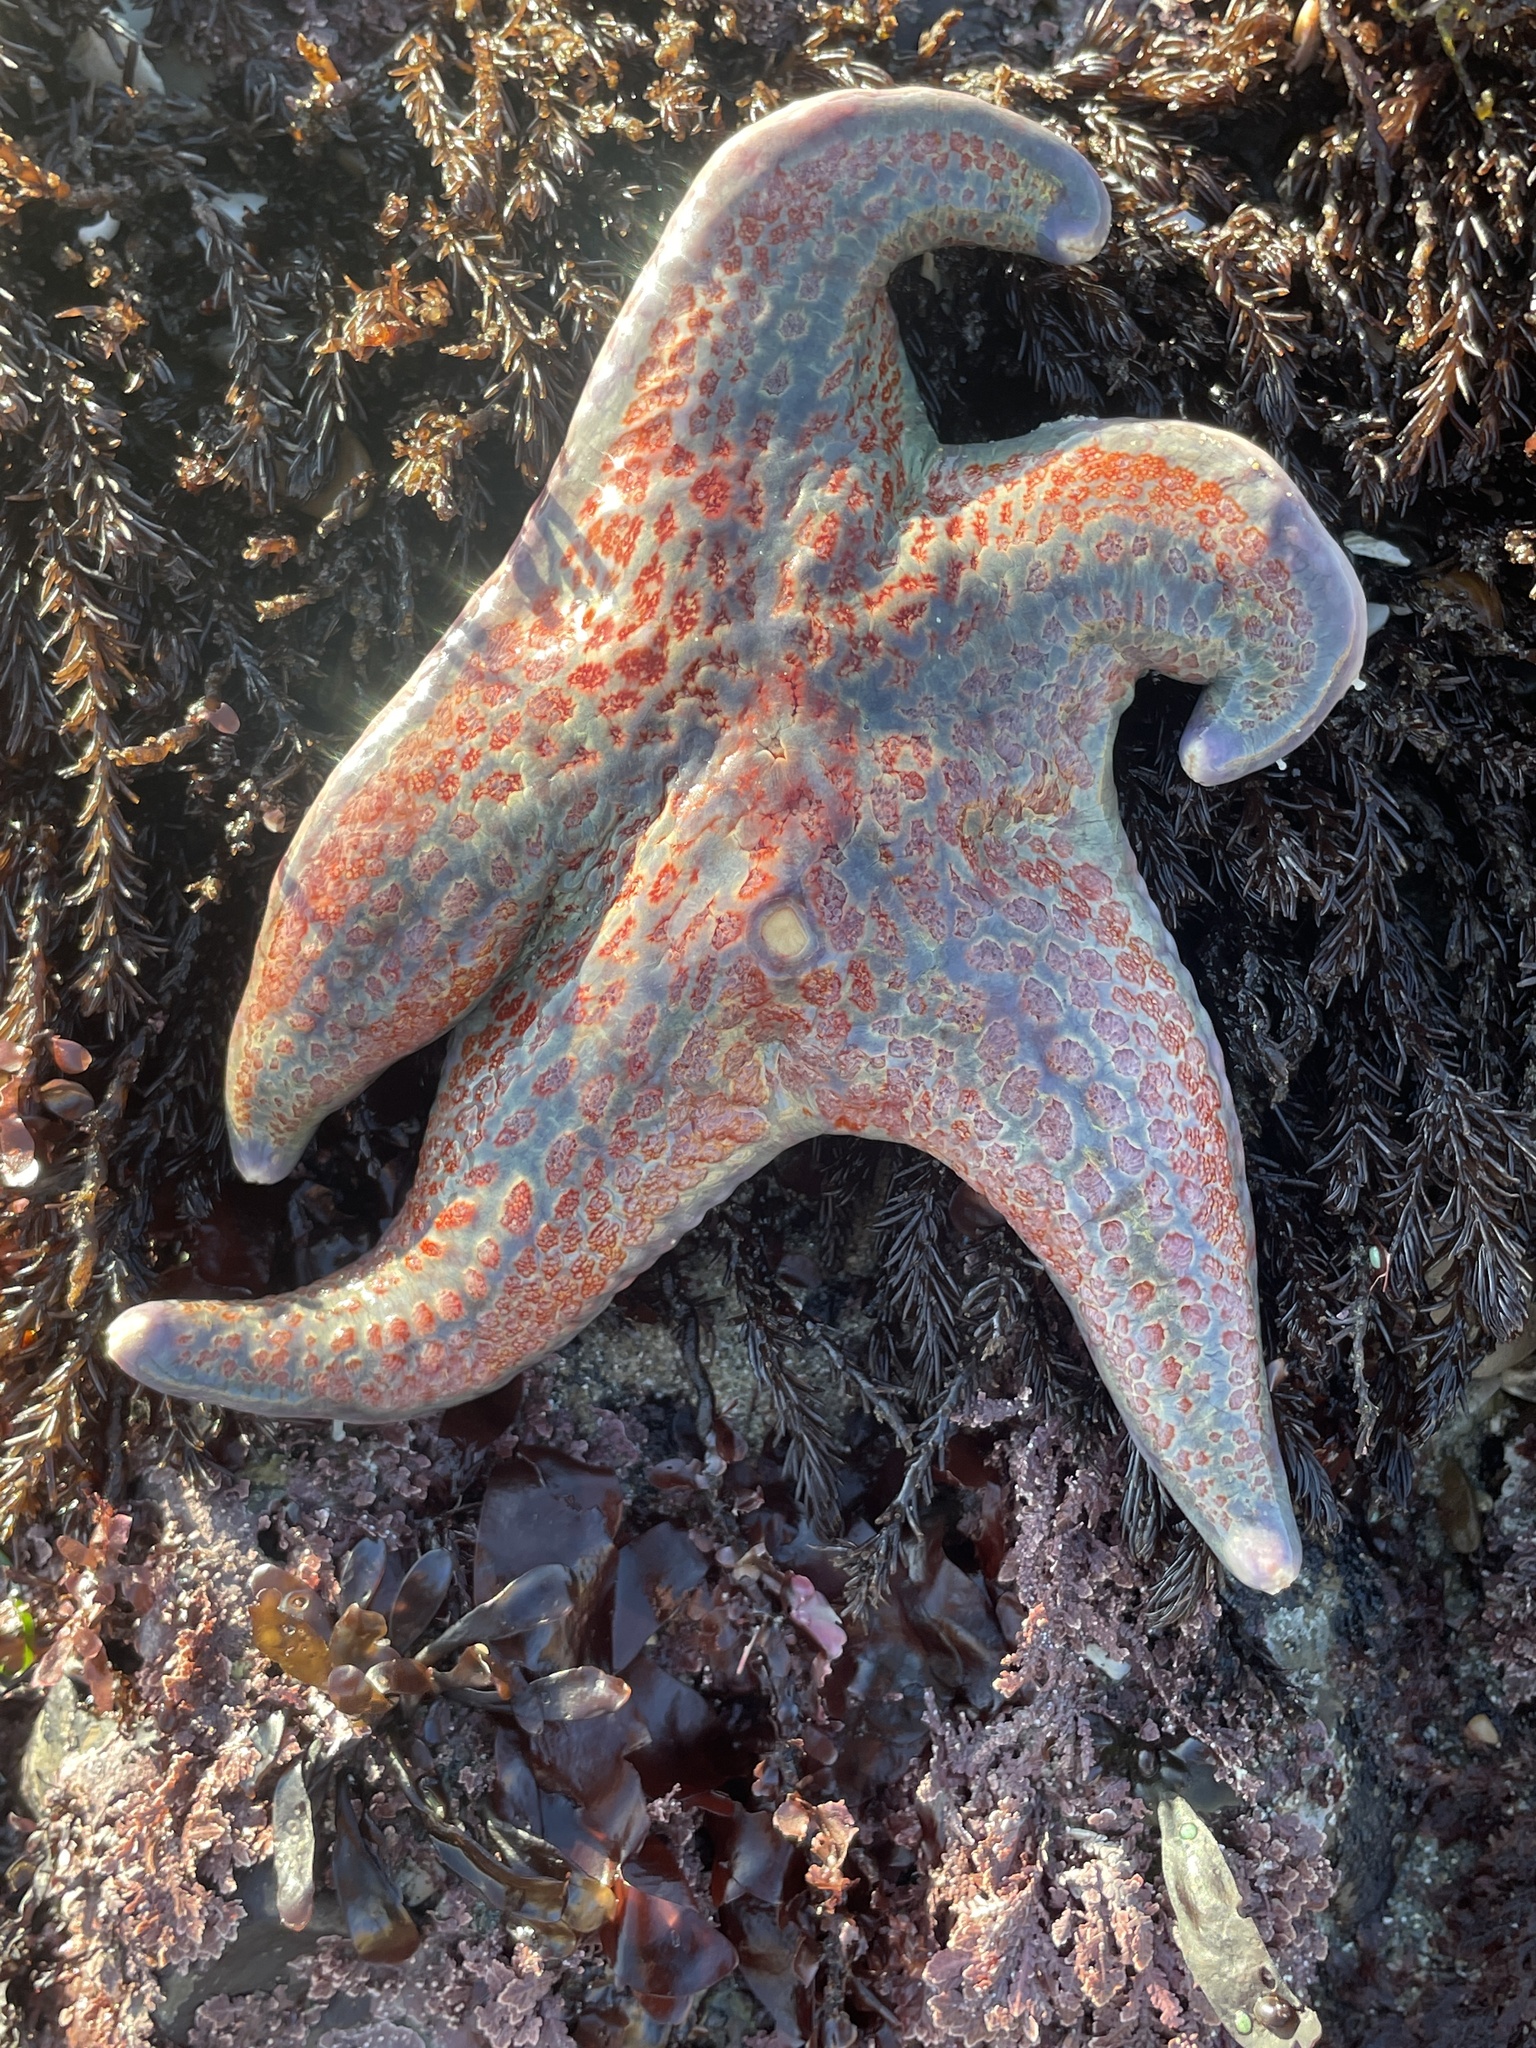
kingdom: Animalia
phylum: Echinodermata
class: Asteroidea
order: Valvatida
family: Asteropseidae
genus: Dermasterias
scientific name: Dermasterias imbricata
